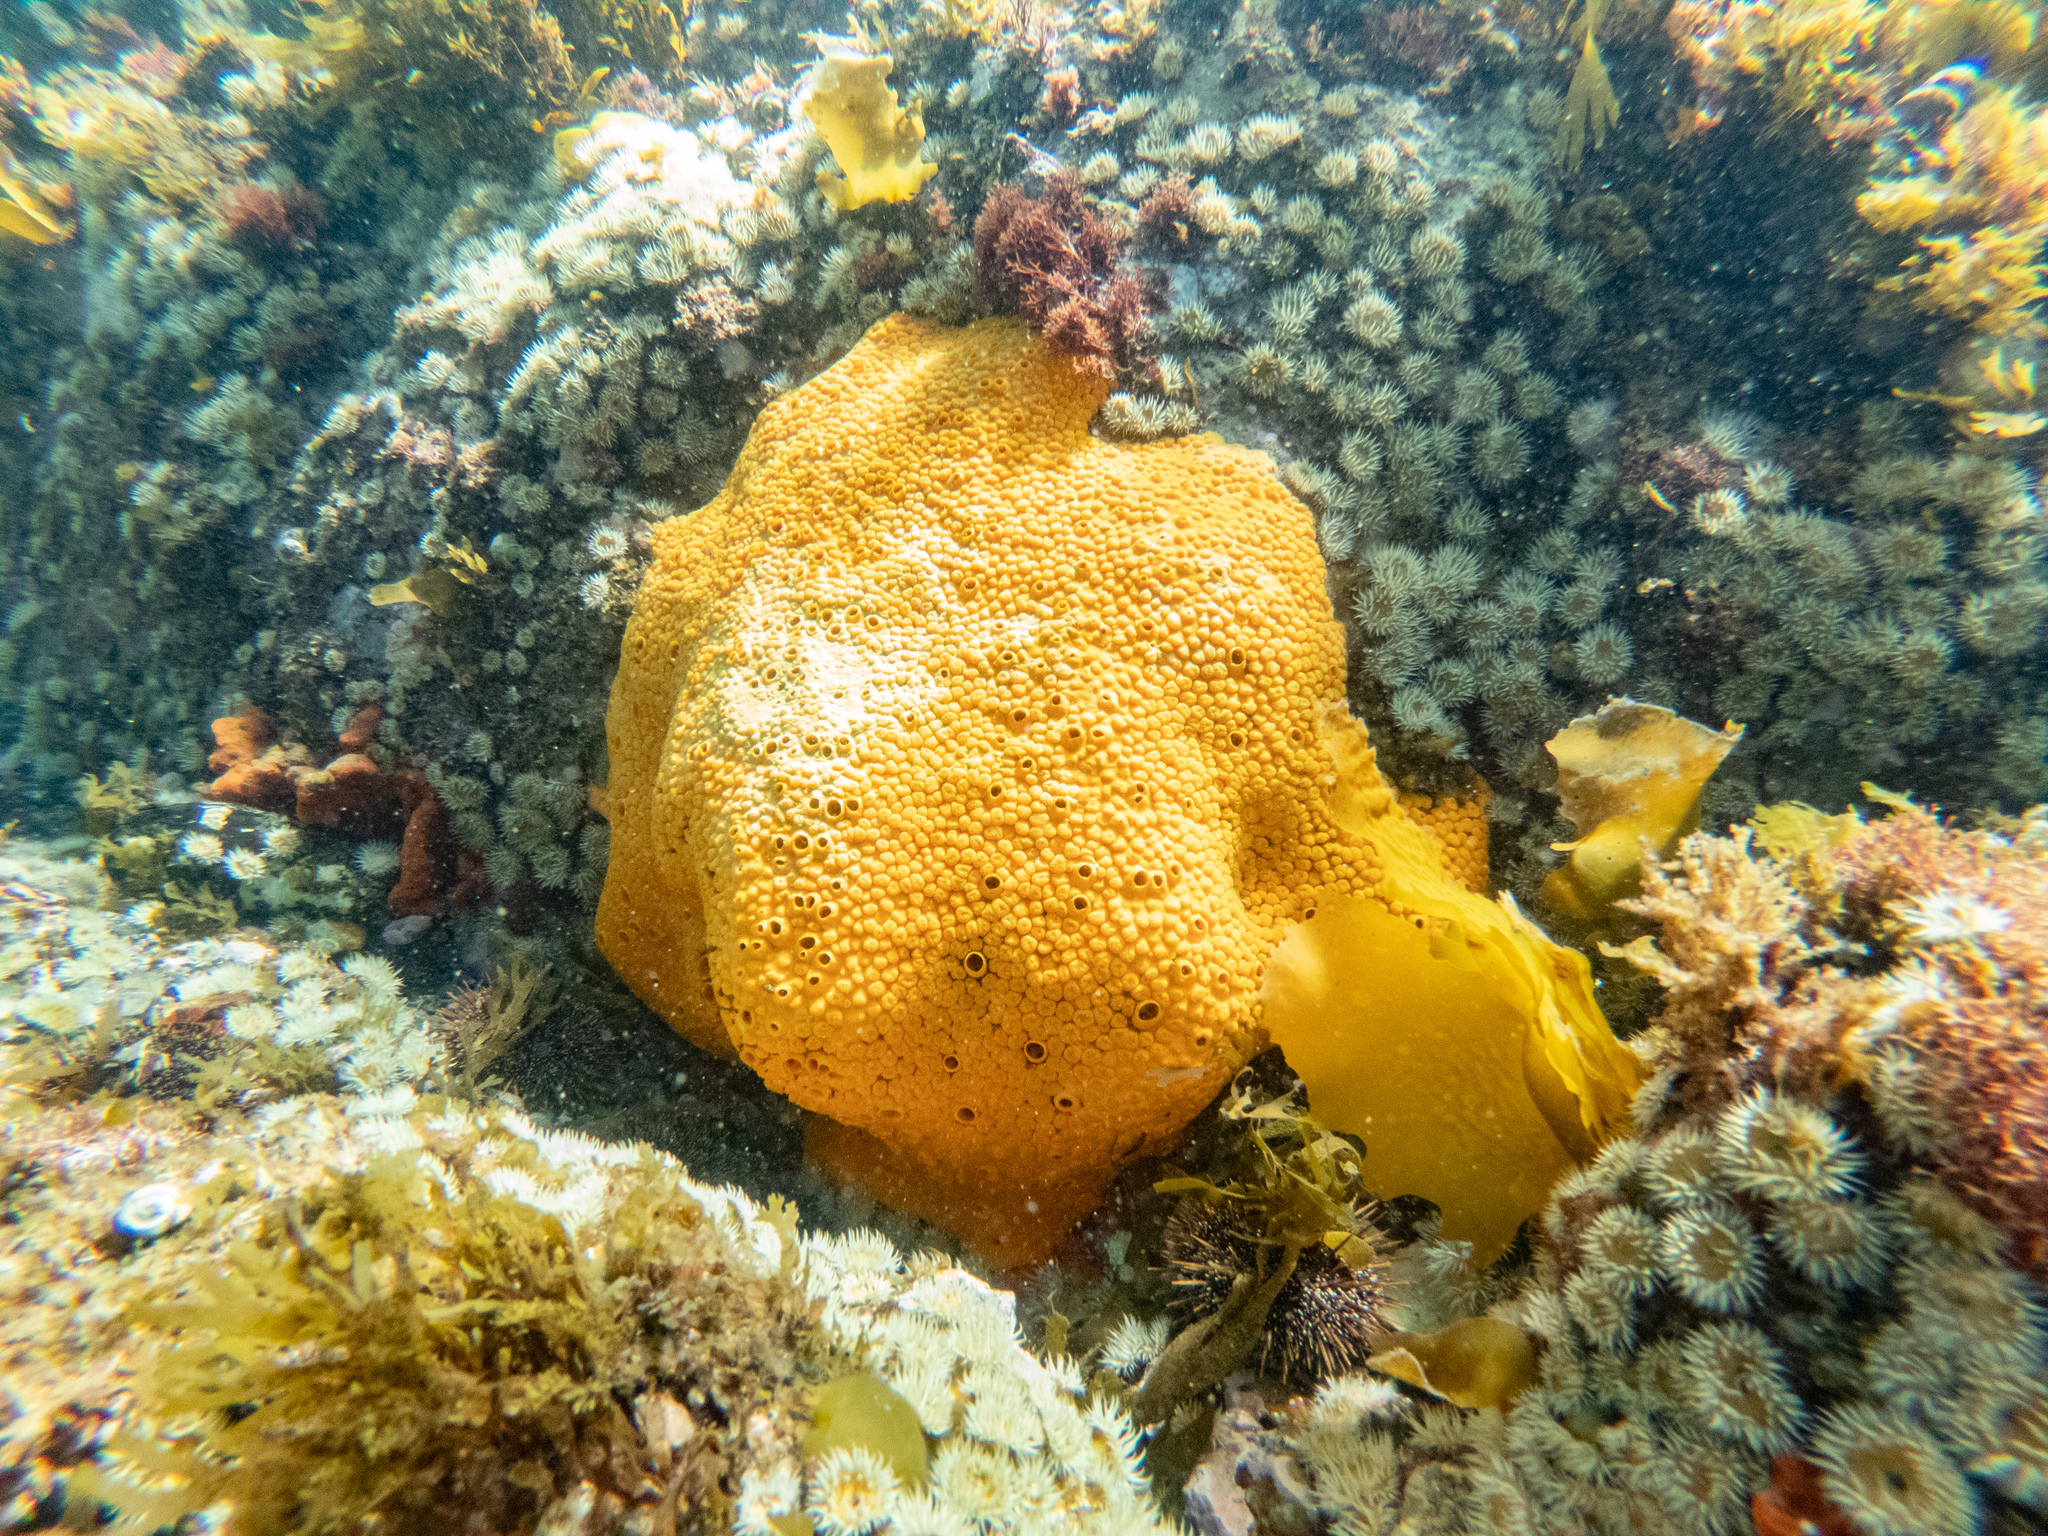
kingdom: Animalia
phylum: Porifera
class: Demospongiae
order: Clionaida
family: Clionaidae
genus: Cliona
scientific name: Cliona celata
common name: Boring sponge
